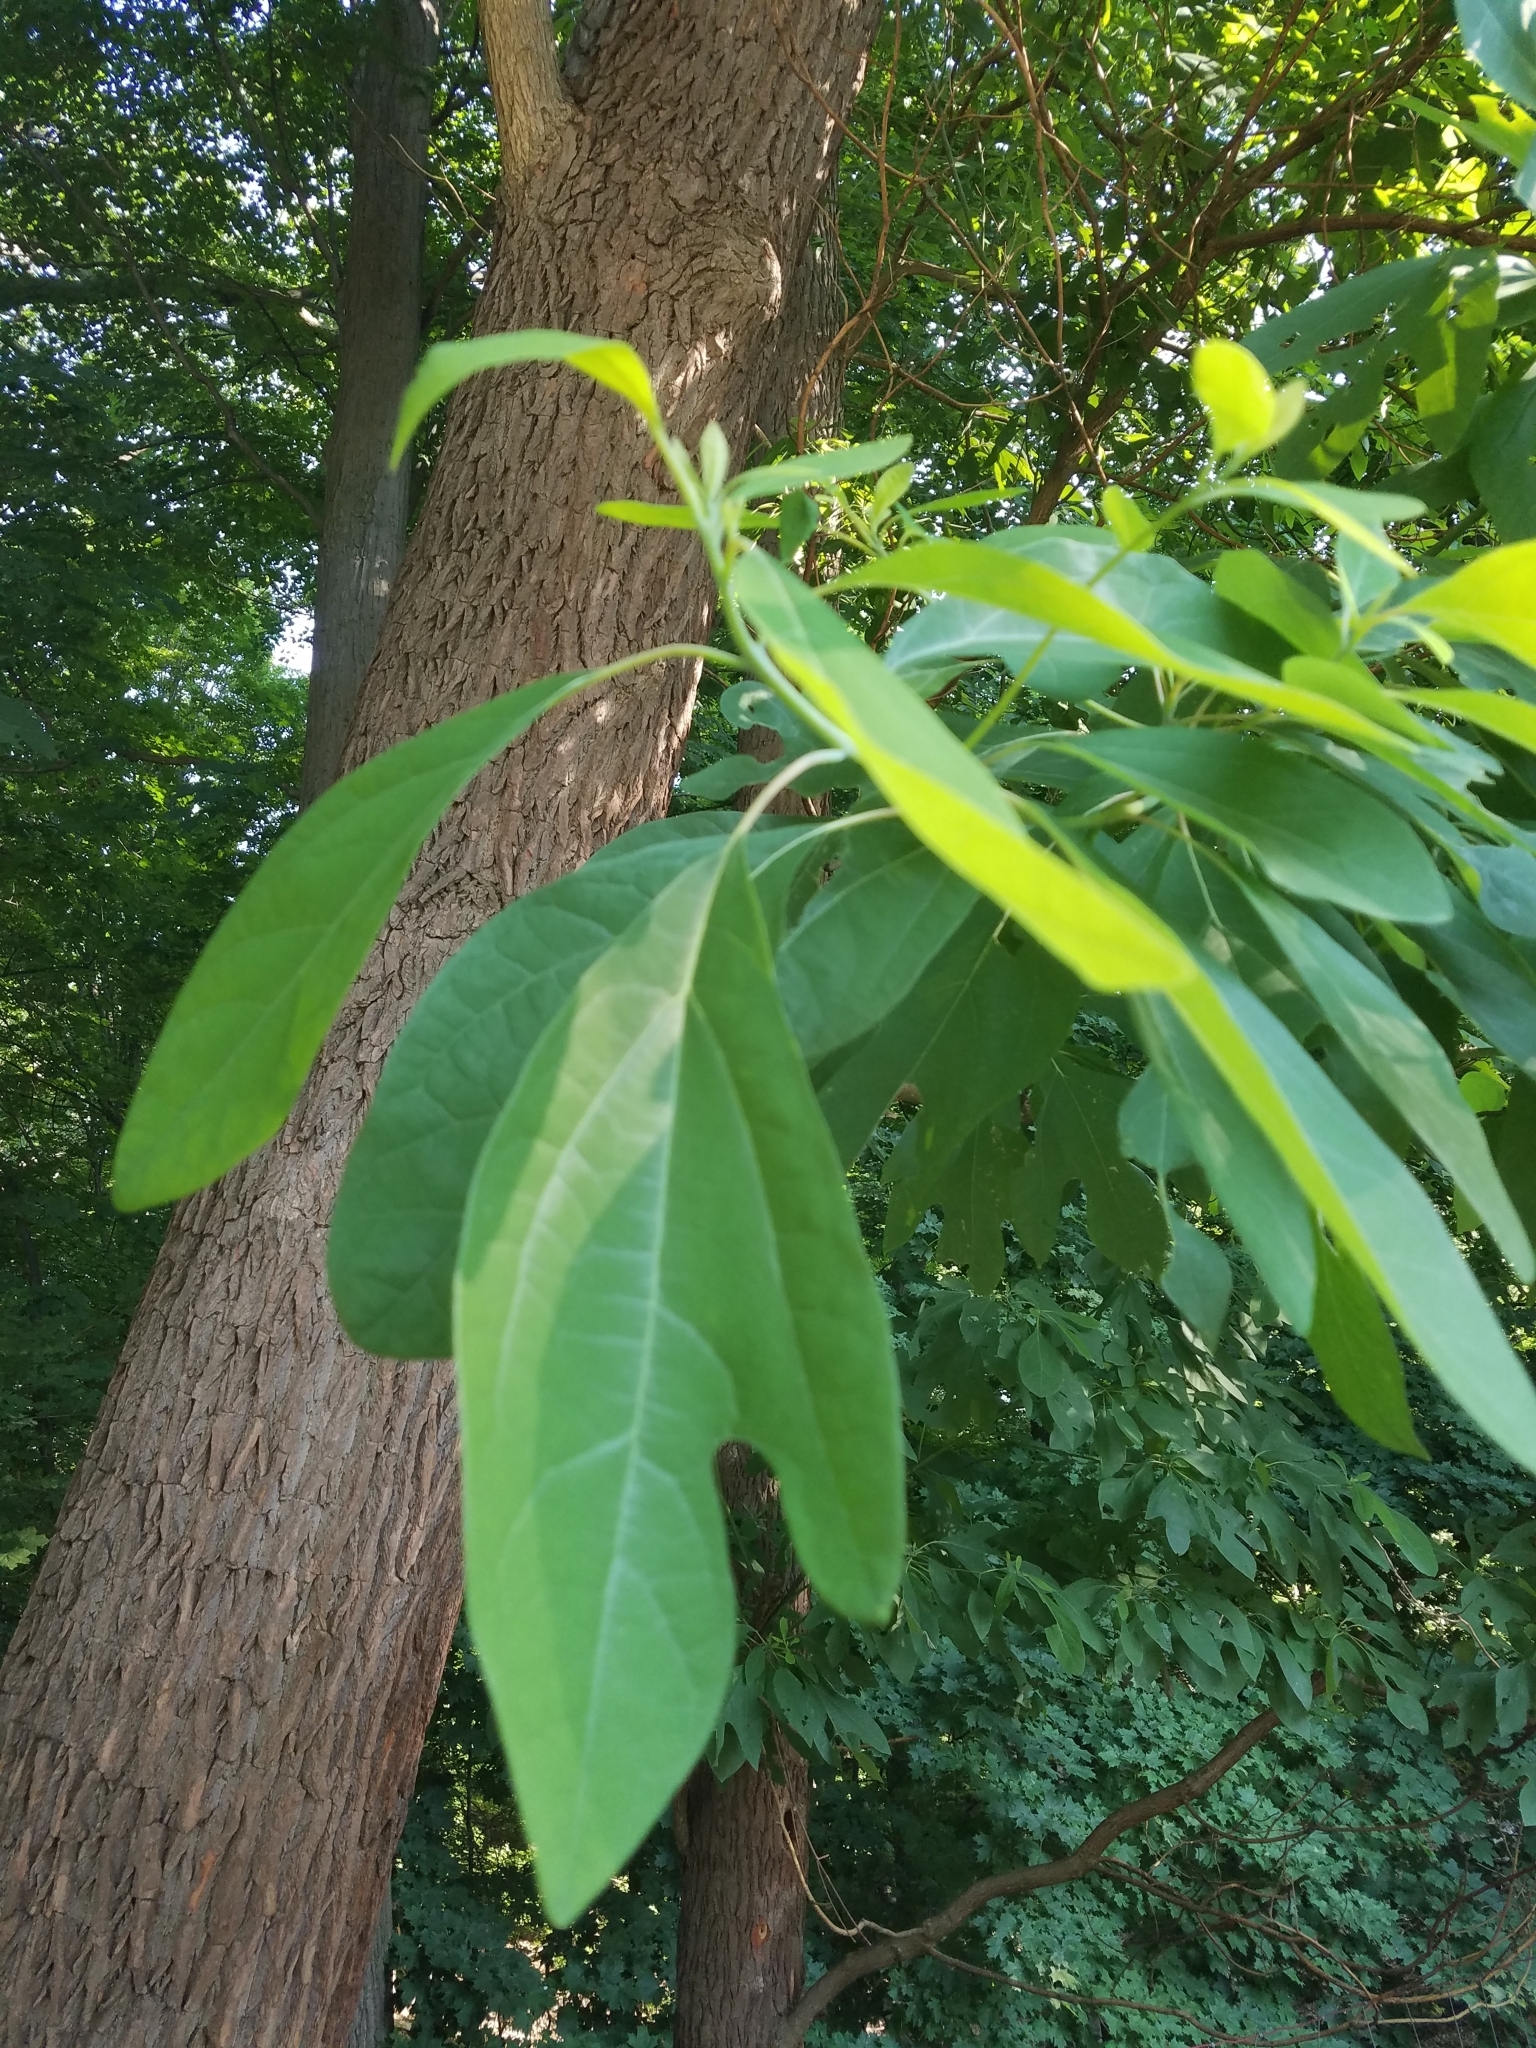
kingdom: Plantae
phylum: Tracheophyta
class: Magnoliopsida
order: Laurales
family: Lauraceae
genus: Sassafras
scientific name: Sassafras albidum
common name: Sassafras
